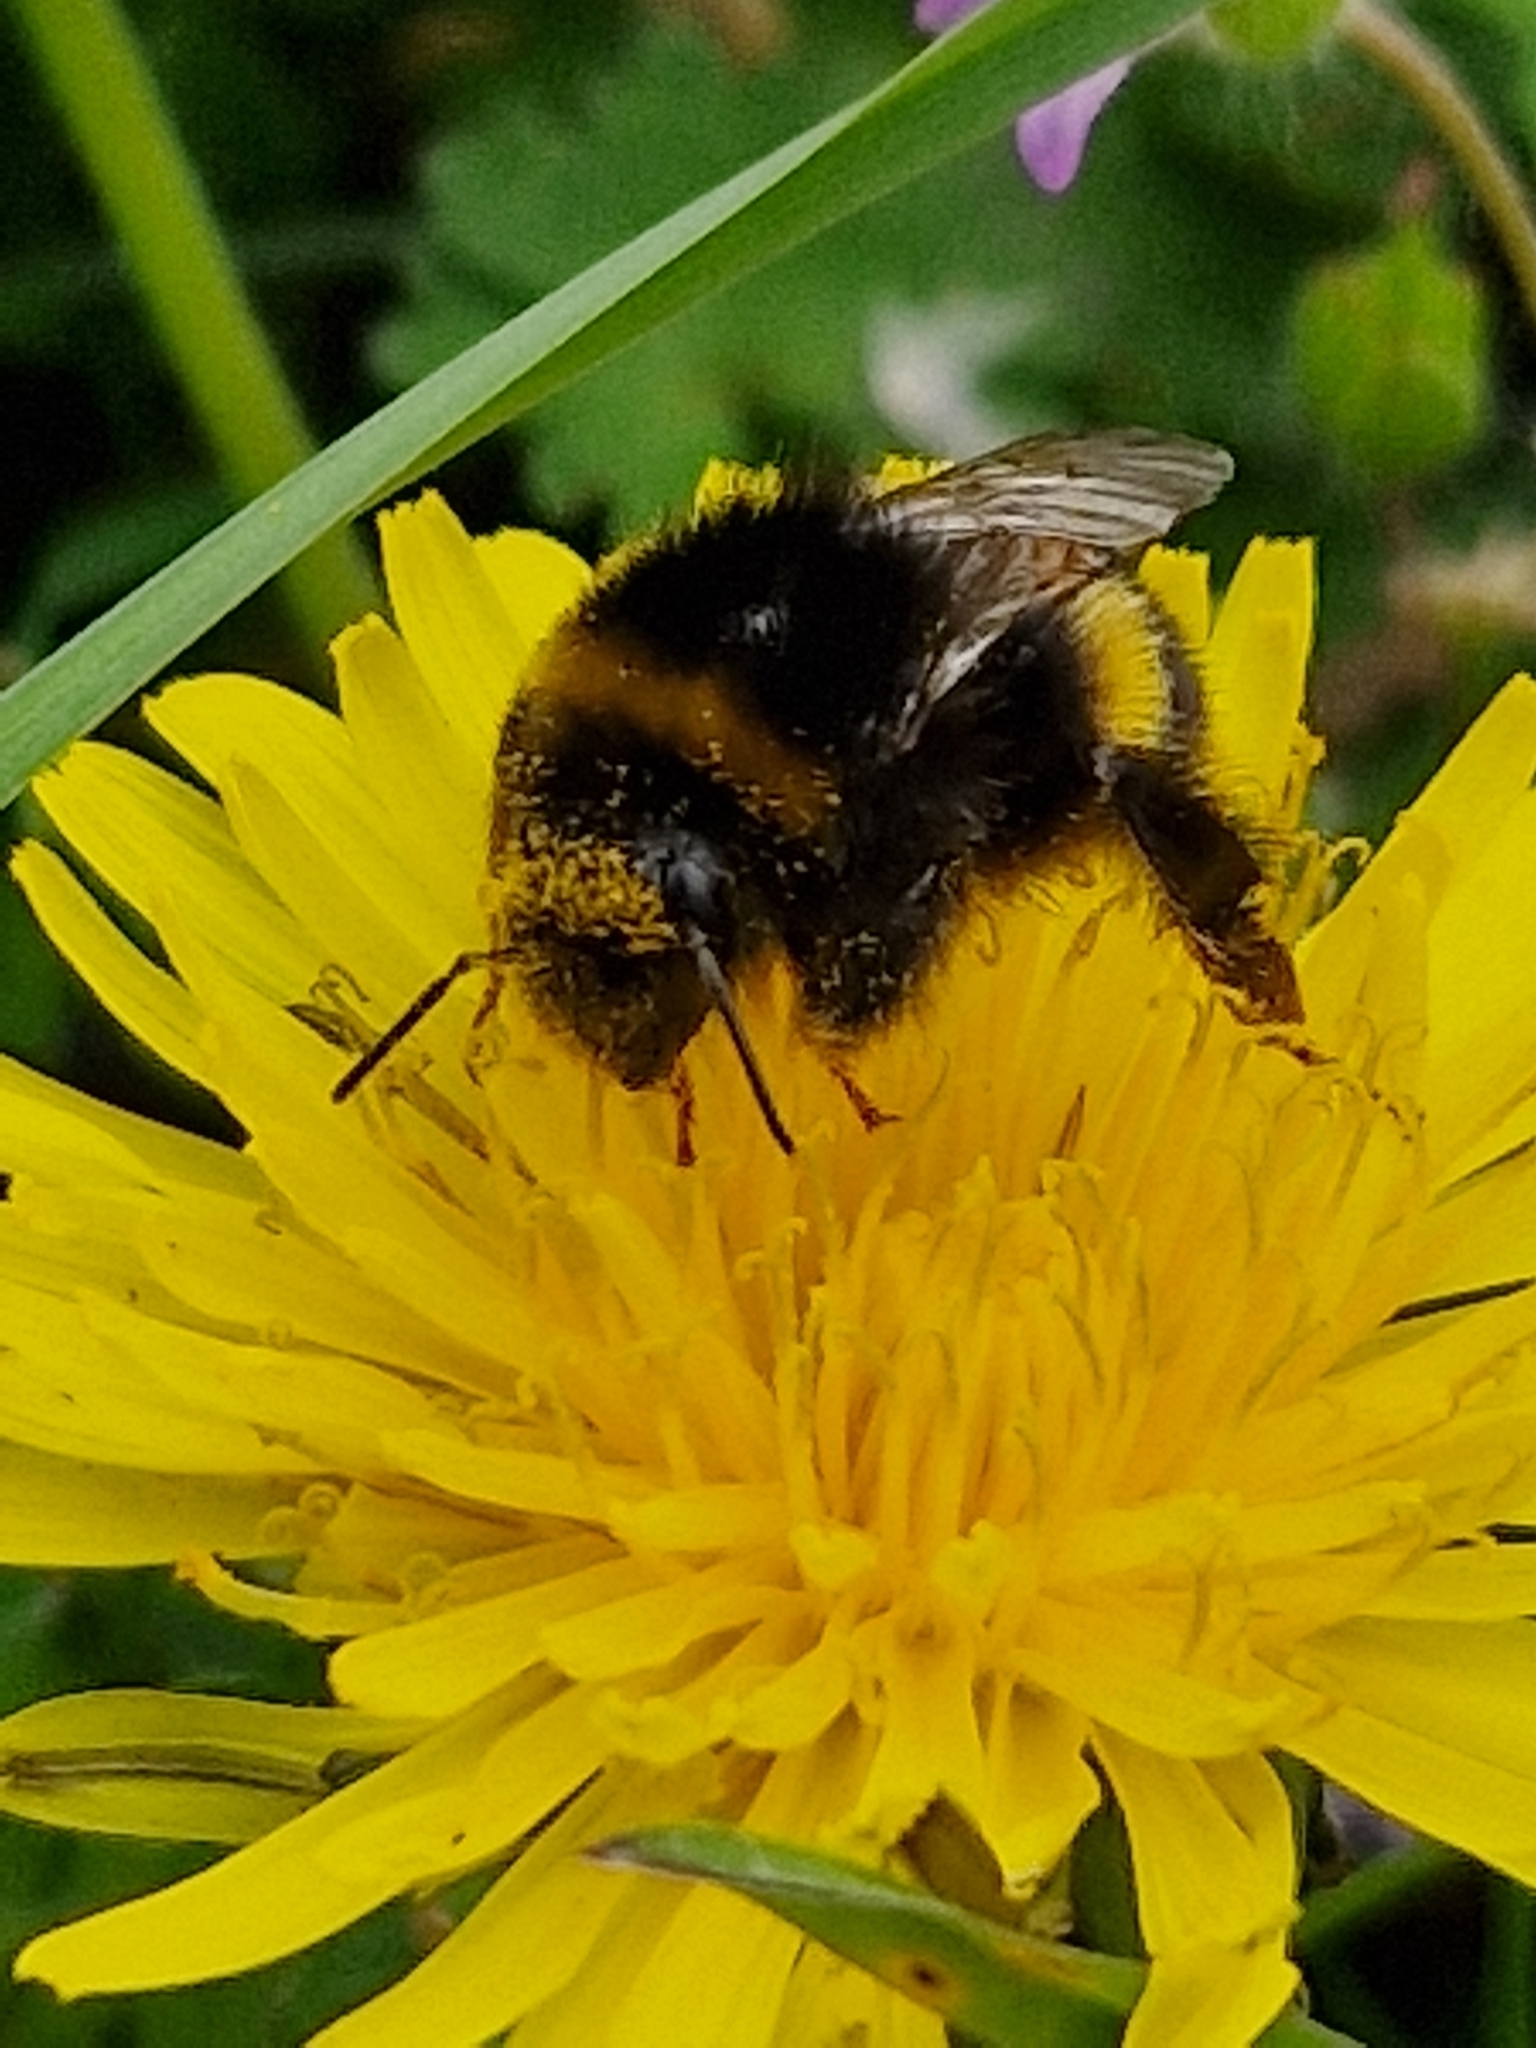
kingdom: Animalia
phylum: Arthropoda
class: Insecta
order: Hymenoptera
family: Apidae
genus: Bombus
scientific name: Bombus terrestris
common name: Buff-tailed bumblebee
